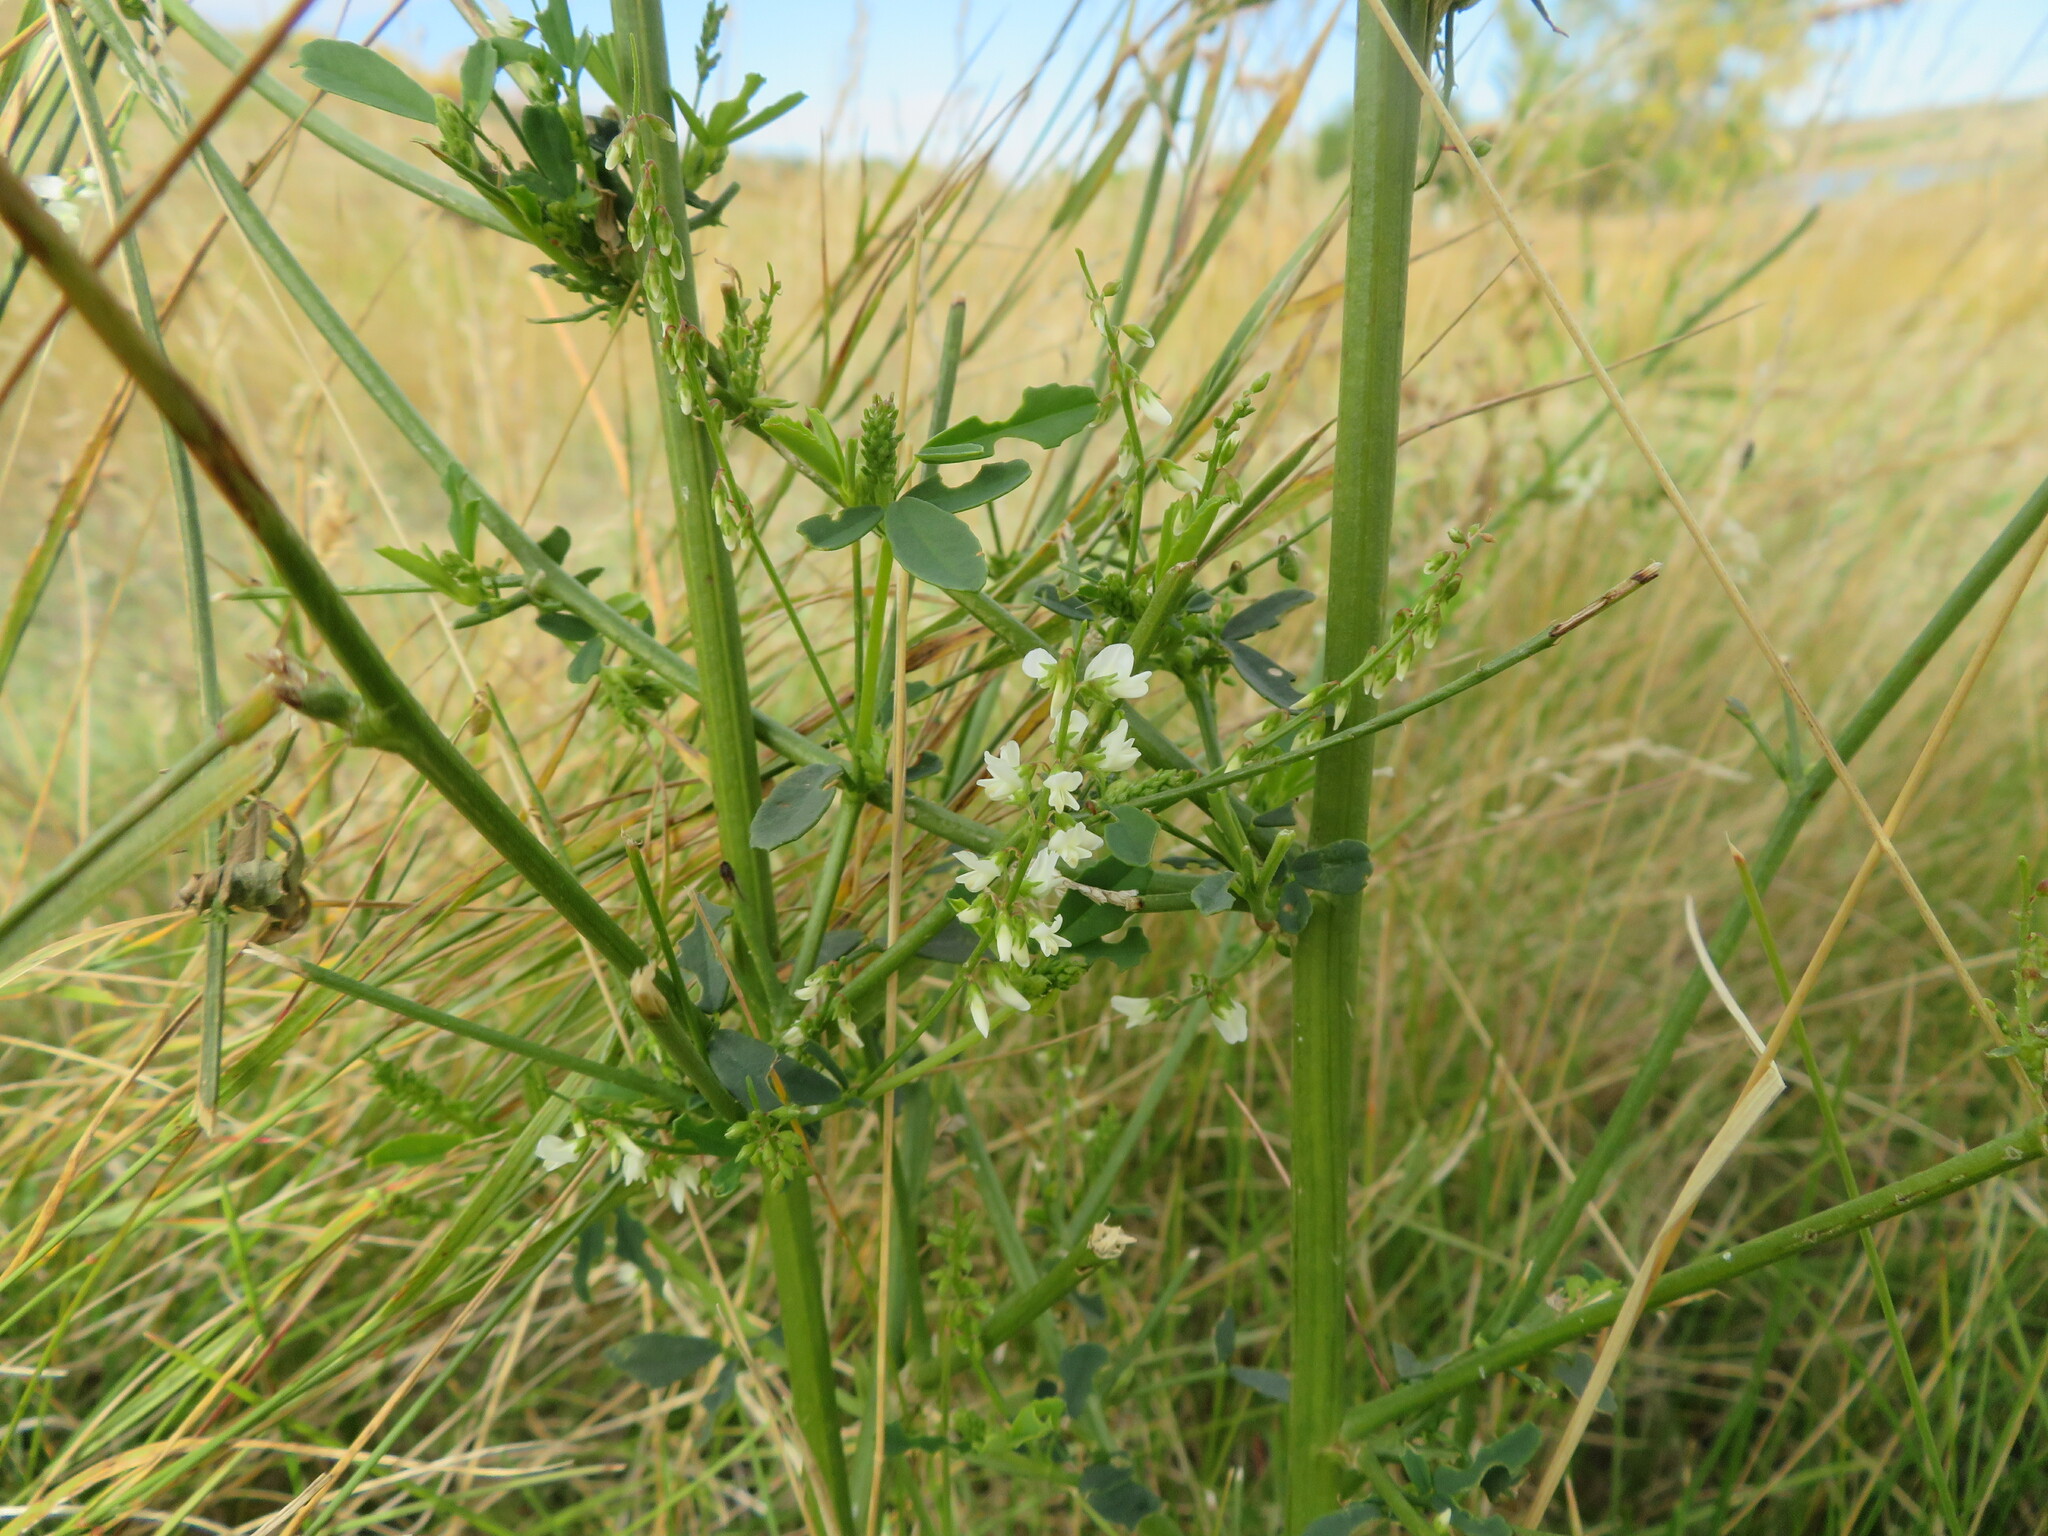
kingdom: Plantae
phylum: Tracheophyta
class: Magnoliopsida
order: Fabales
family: Fabaceae
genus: Melilotus
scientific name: Melilotus albus
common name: White melilot
